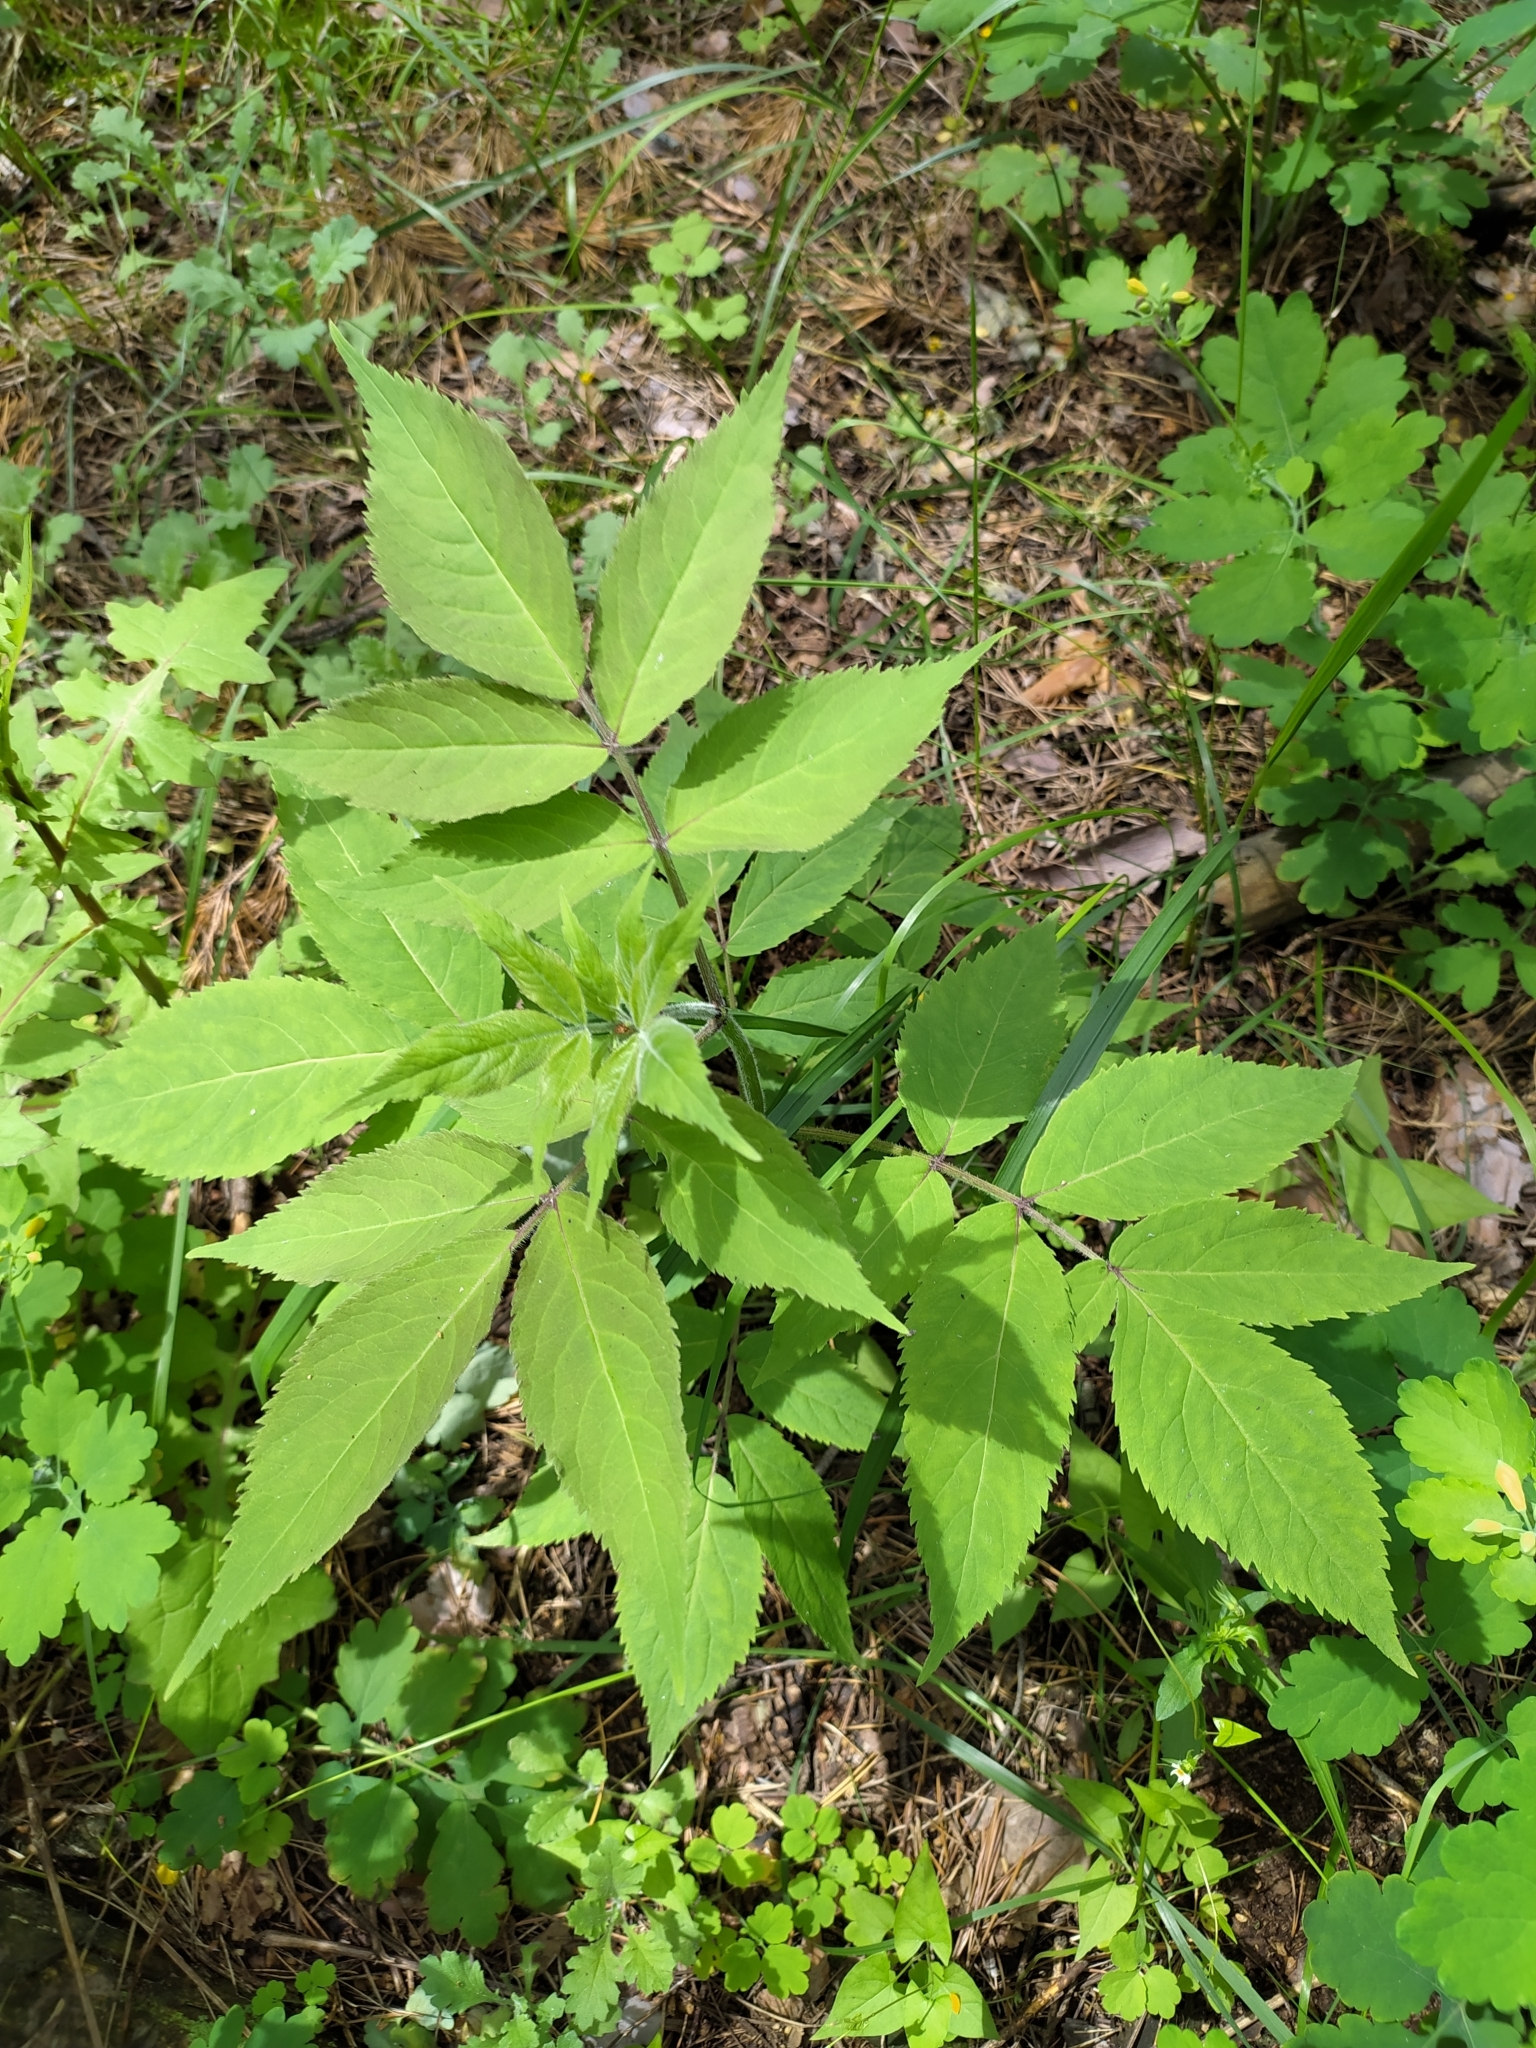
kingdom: Plantae
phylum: Tracheophyta
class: Magnoliopsida
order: Dipsacales
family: Viburnaceae
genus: Sambucus
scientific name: Sambucus racemosa
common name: Red-berried elder
